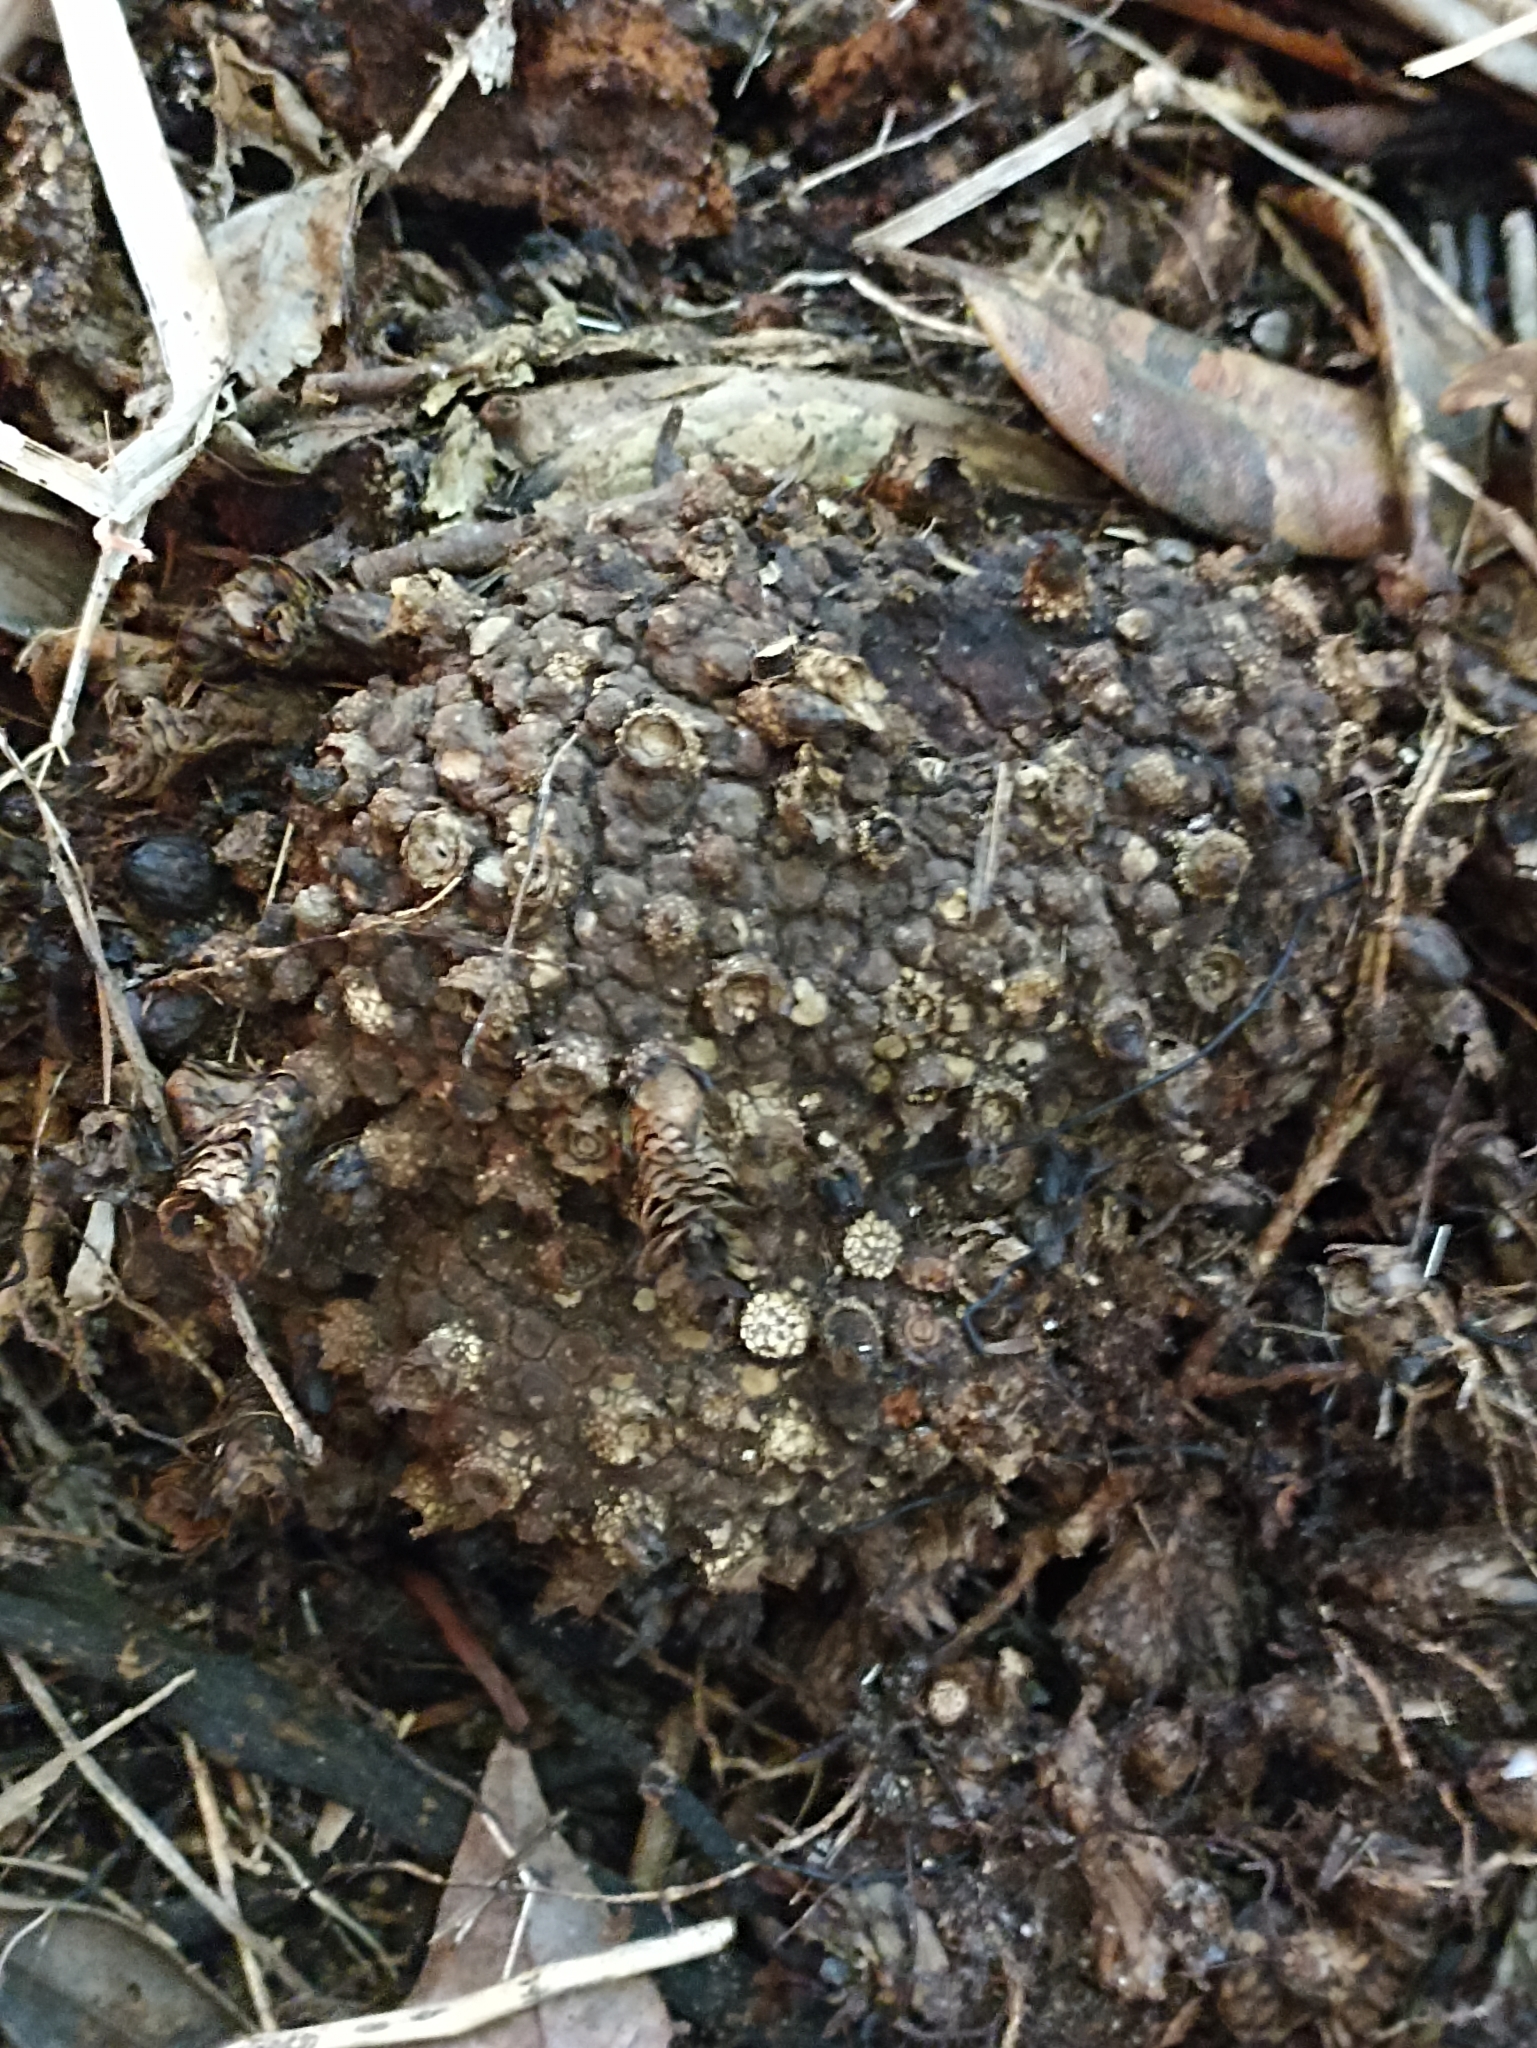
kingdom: Plantae
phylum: Tracheophyta
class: Magnoliopsida
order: Santalales
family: Mystropetalaceae
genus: Dactylanthus
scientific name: Dactylanthus taylorii
